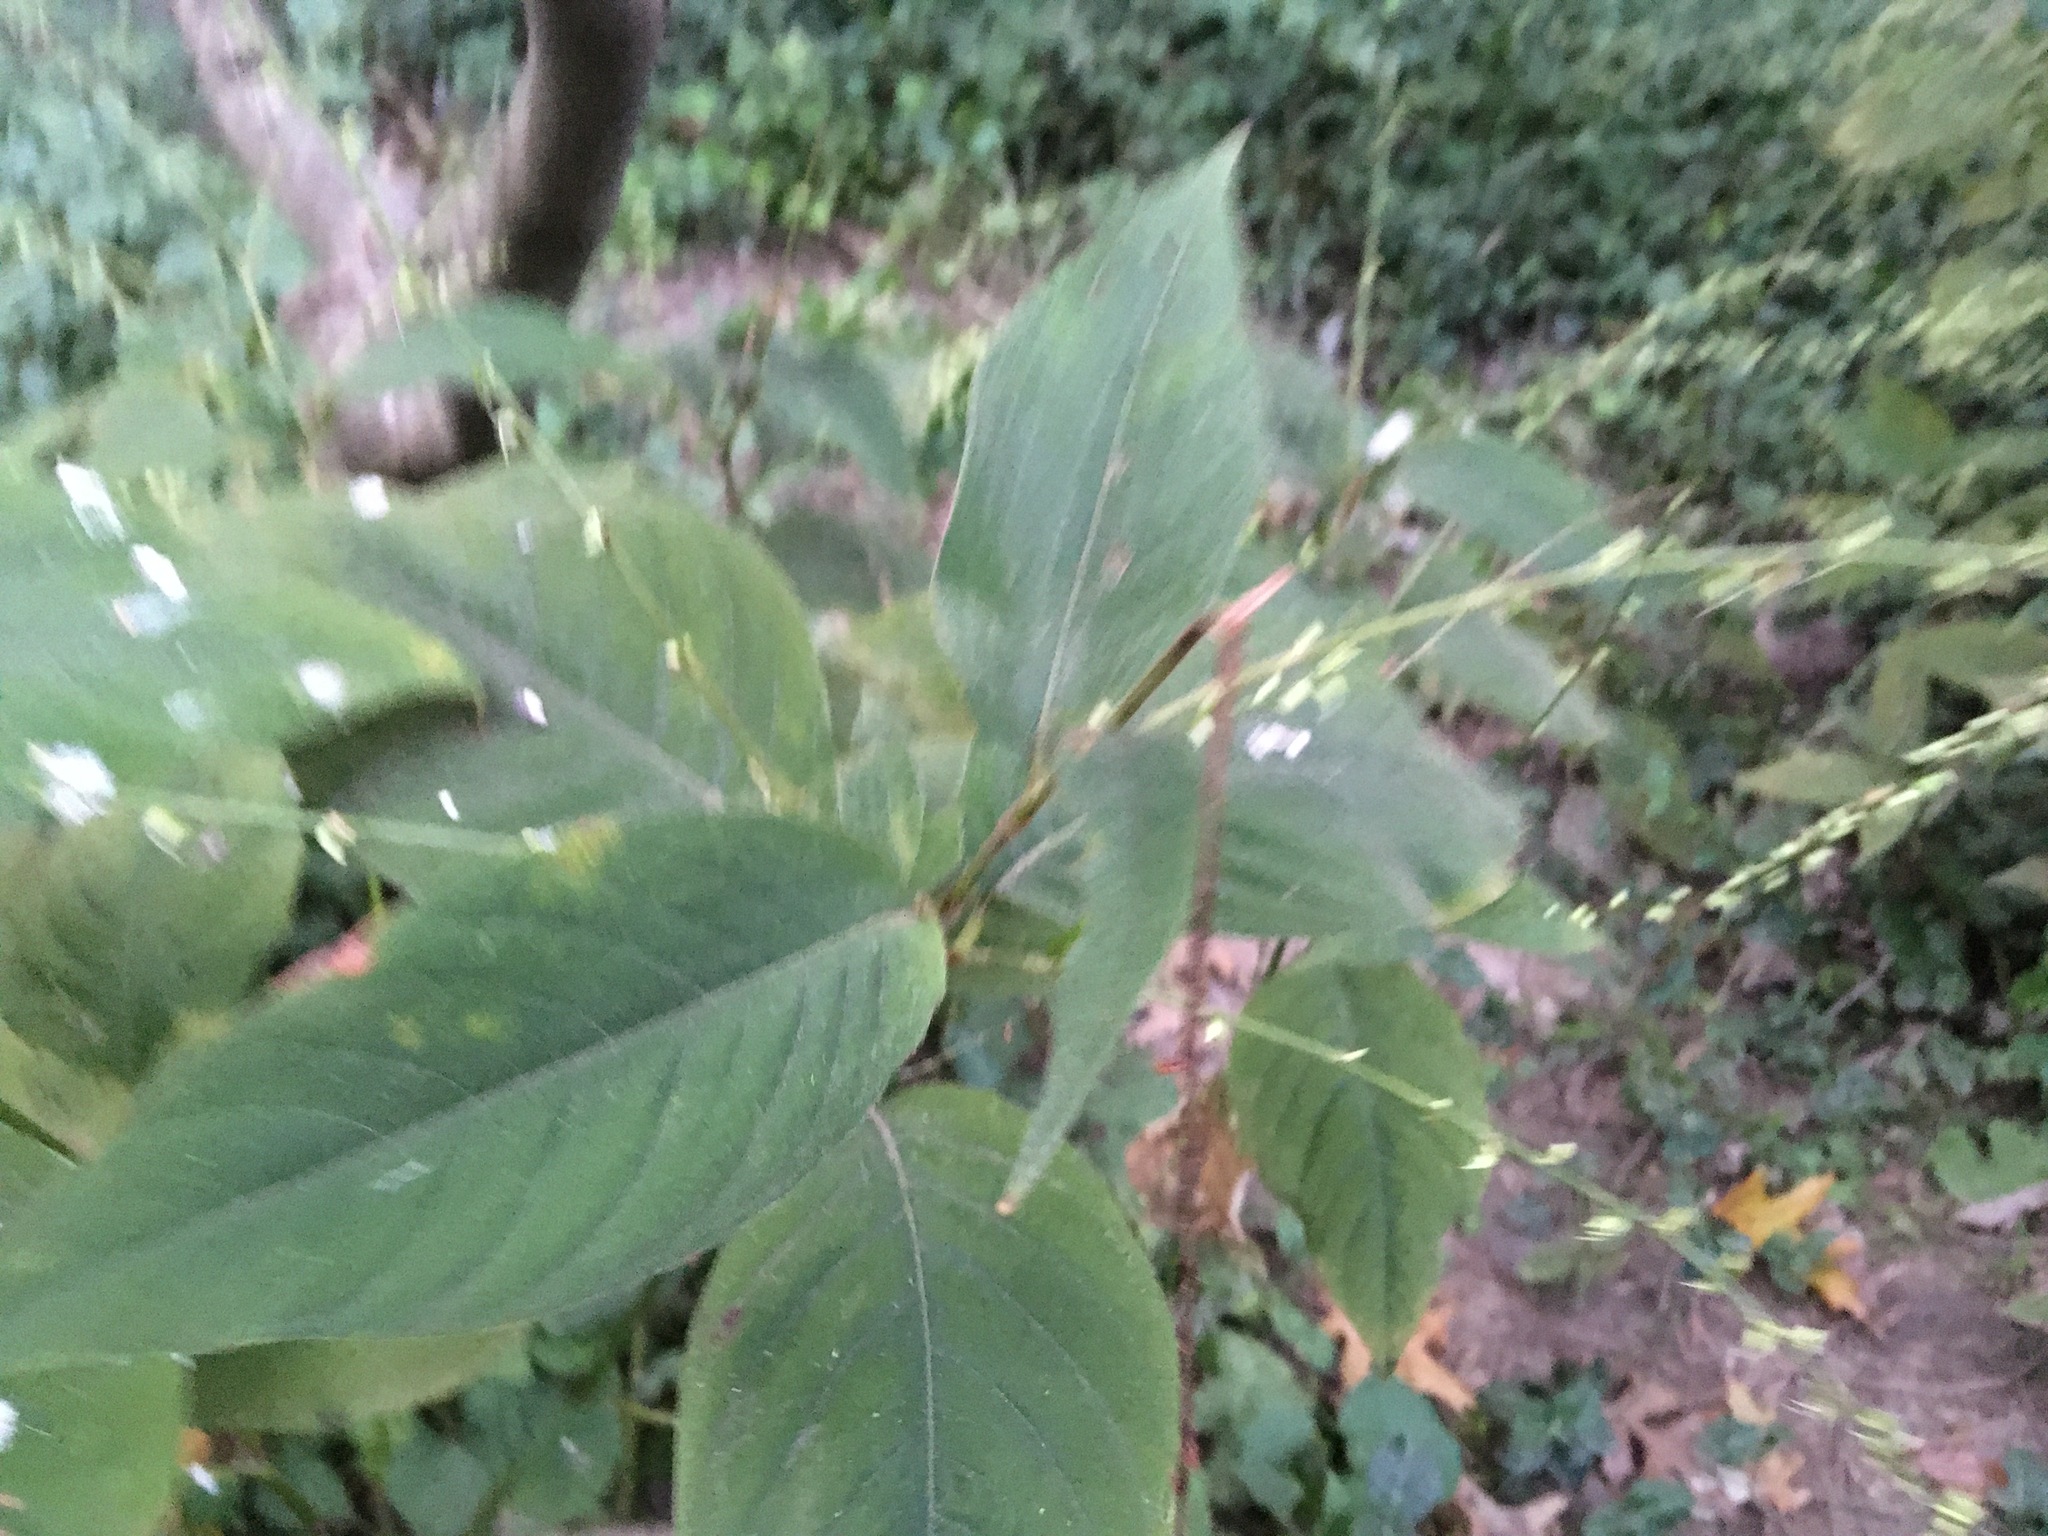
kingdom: Plantae
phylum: Tracheophyta
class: Magnoliopsida
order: Caryophyllales
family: Polygonaceae
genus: Persicaria
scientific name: Persicaria virginiana
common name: Jumpseed
